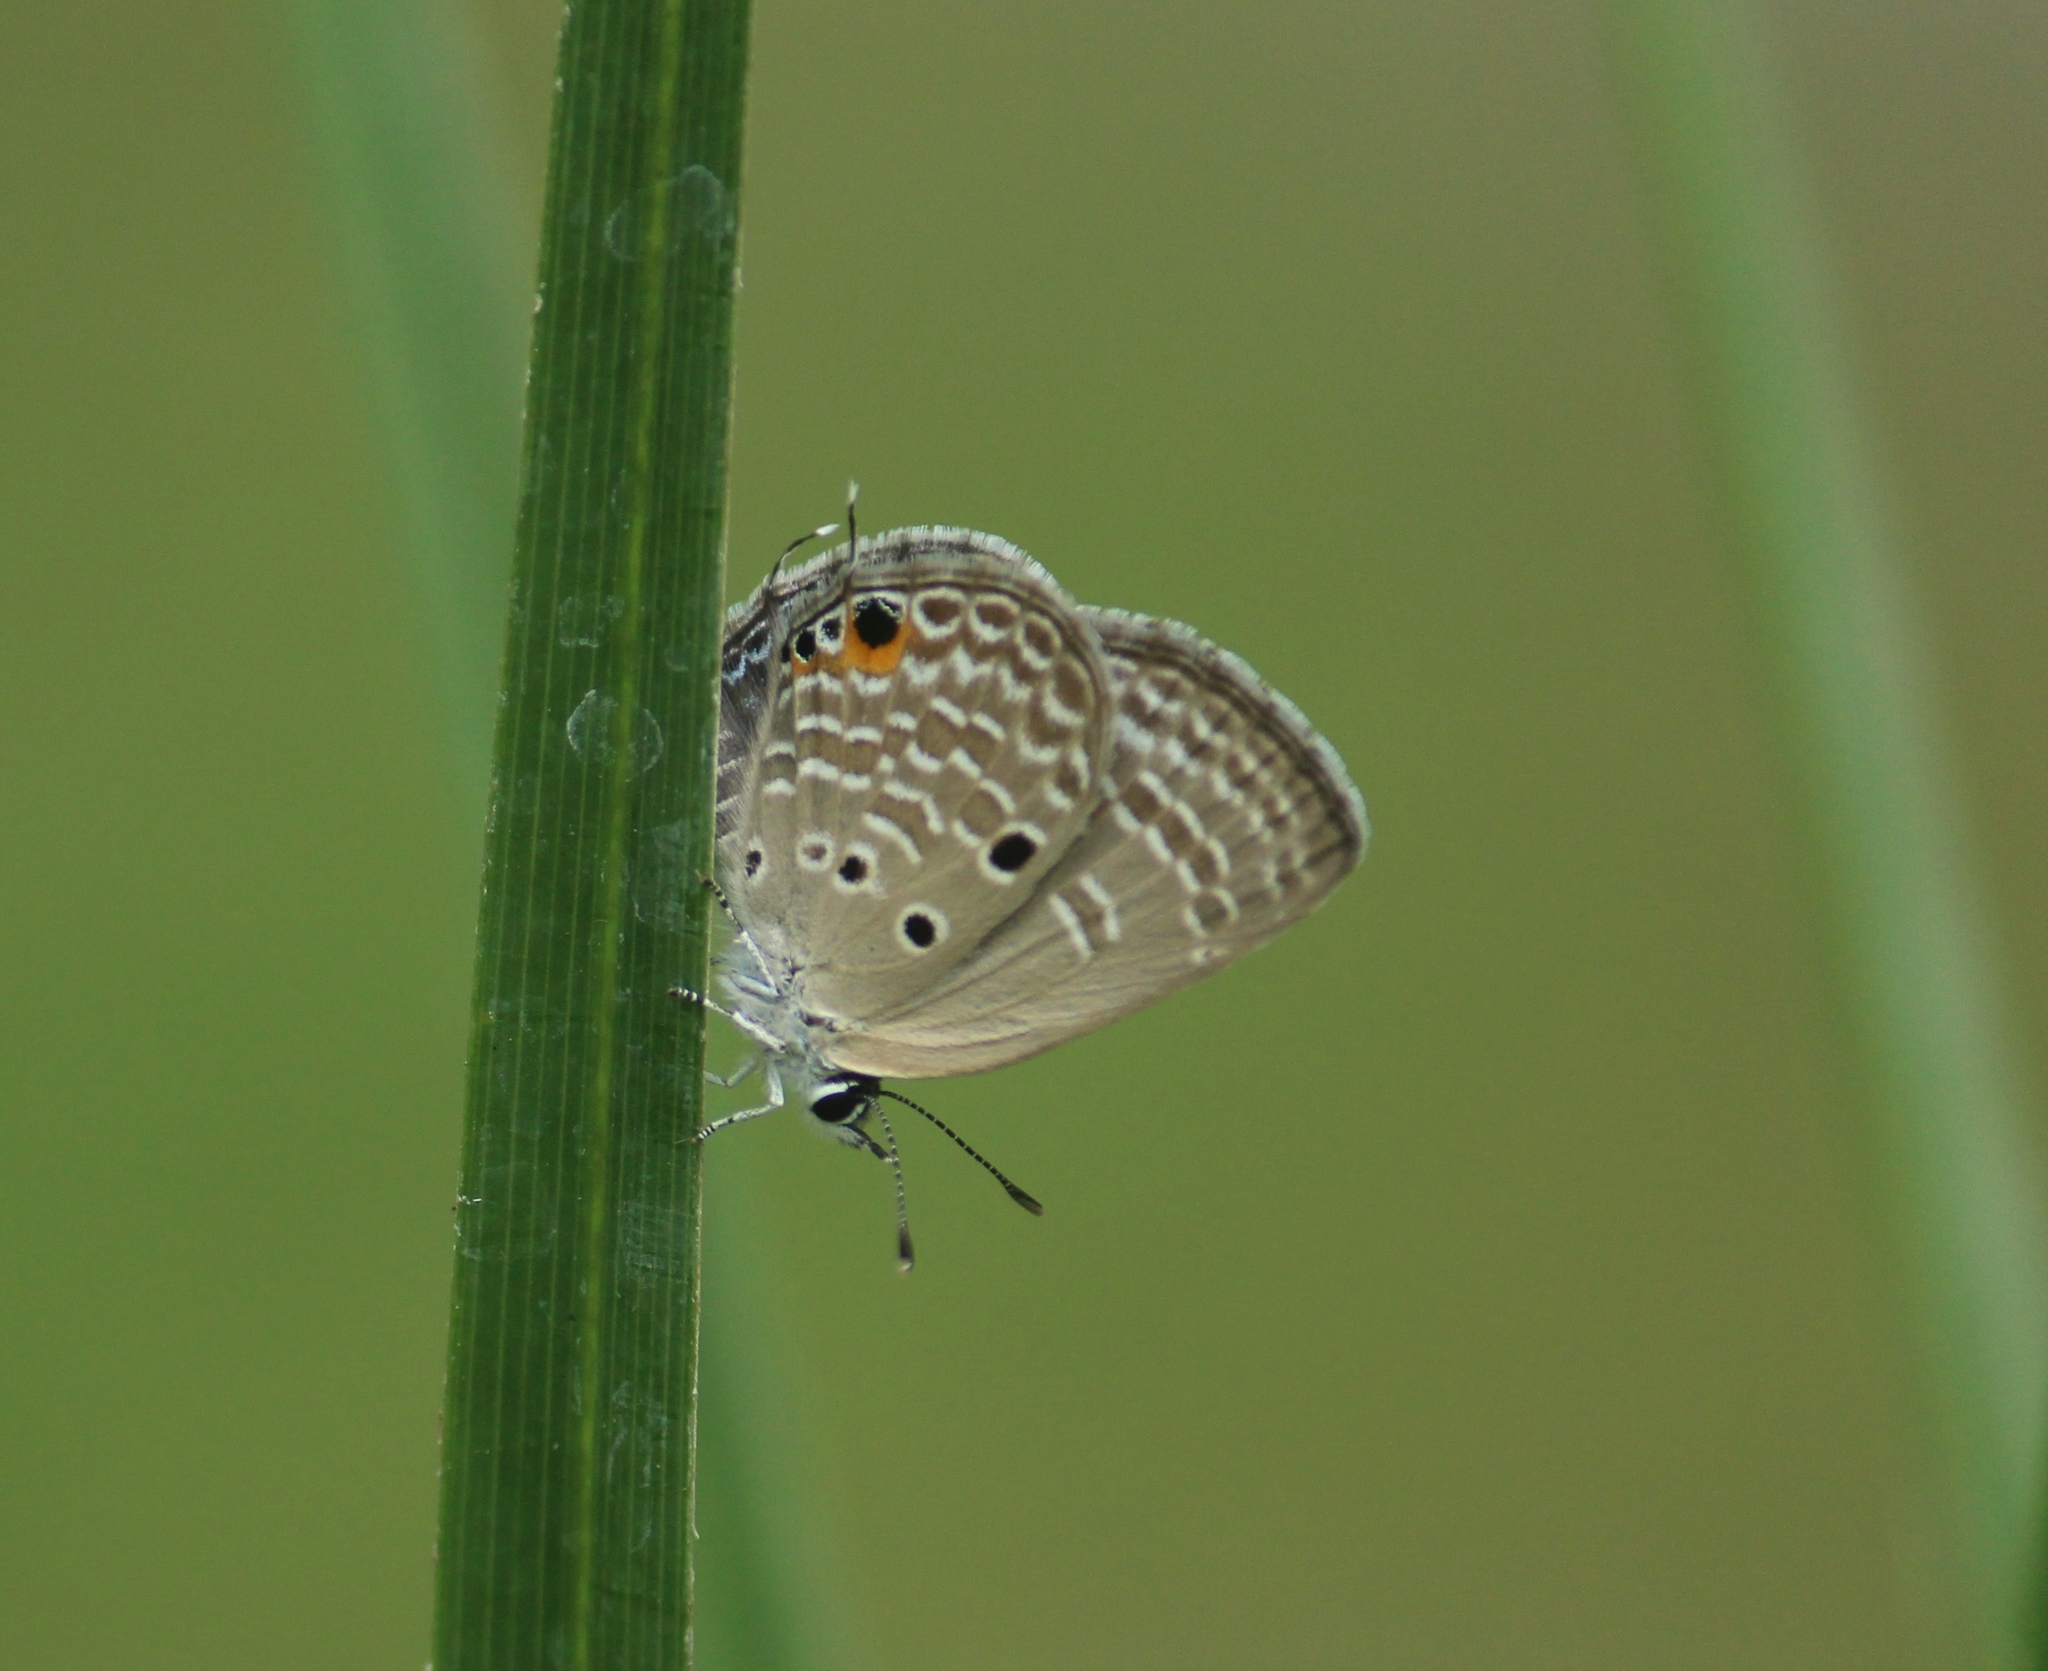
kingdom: Animalia
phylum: Arthropoda
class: Insecta
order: Lepidoptera
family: Lycaenidae
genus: Luthrodes
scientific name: Luthrodes pandava
